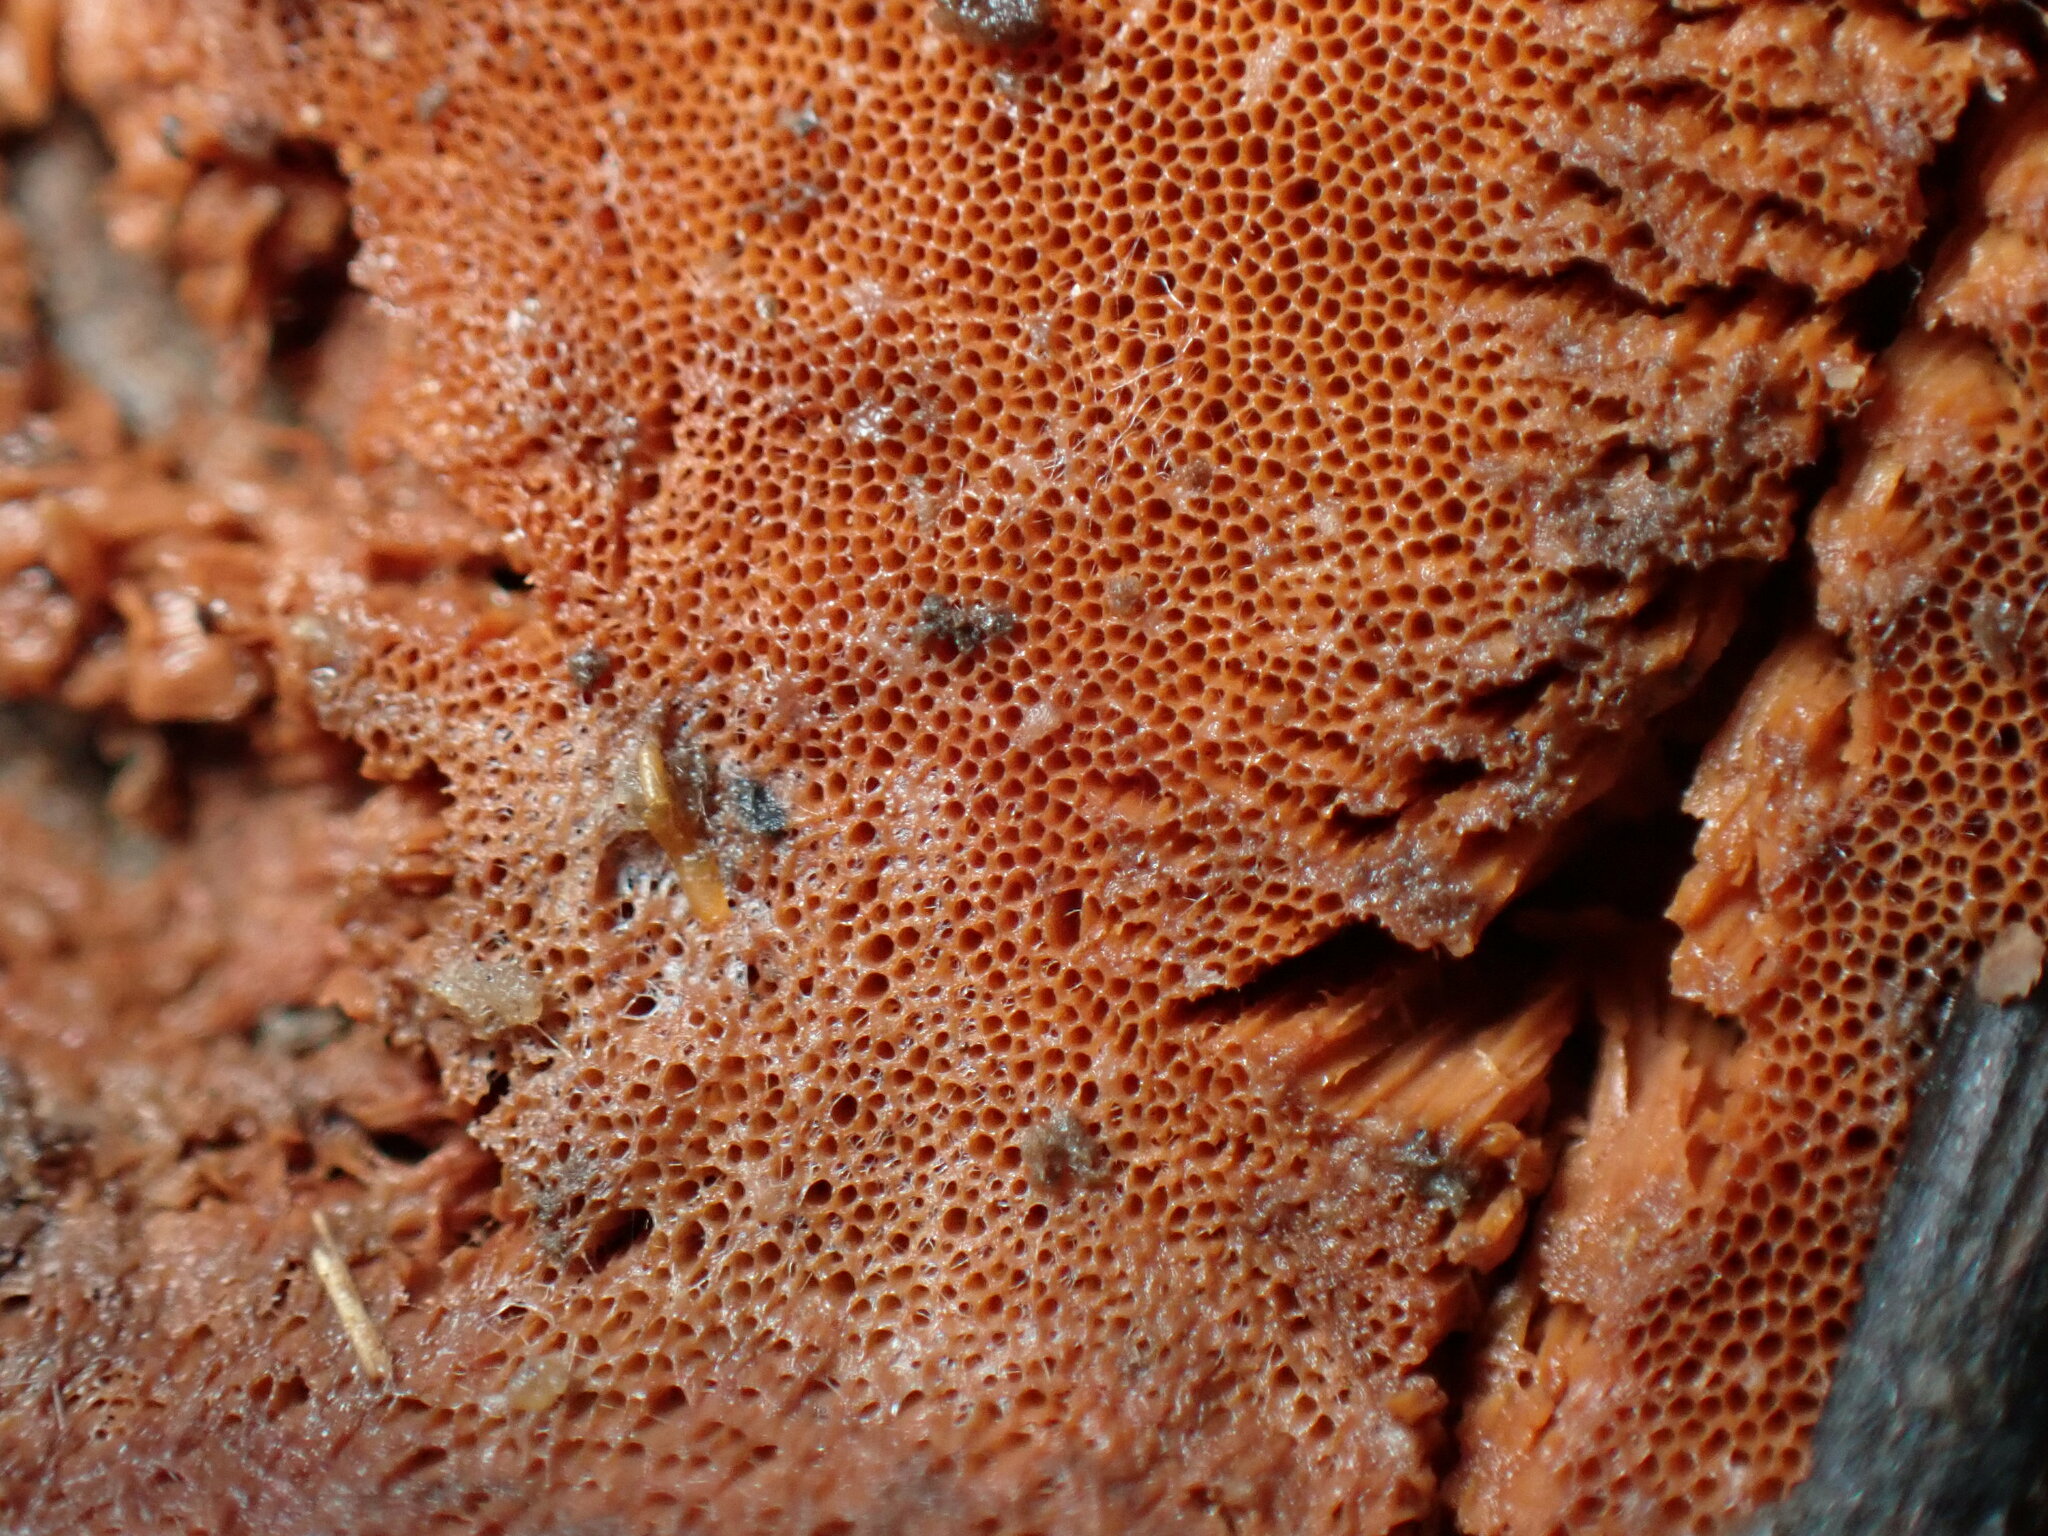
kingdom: Fungi
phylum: Basidiomycota
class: Agaricomycetes
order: Polyporales
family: Irpicaceae
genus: Ceriporia
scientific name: Ceriporia spissa
